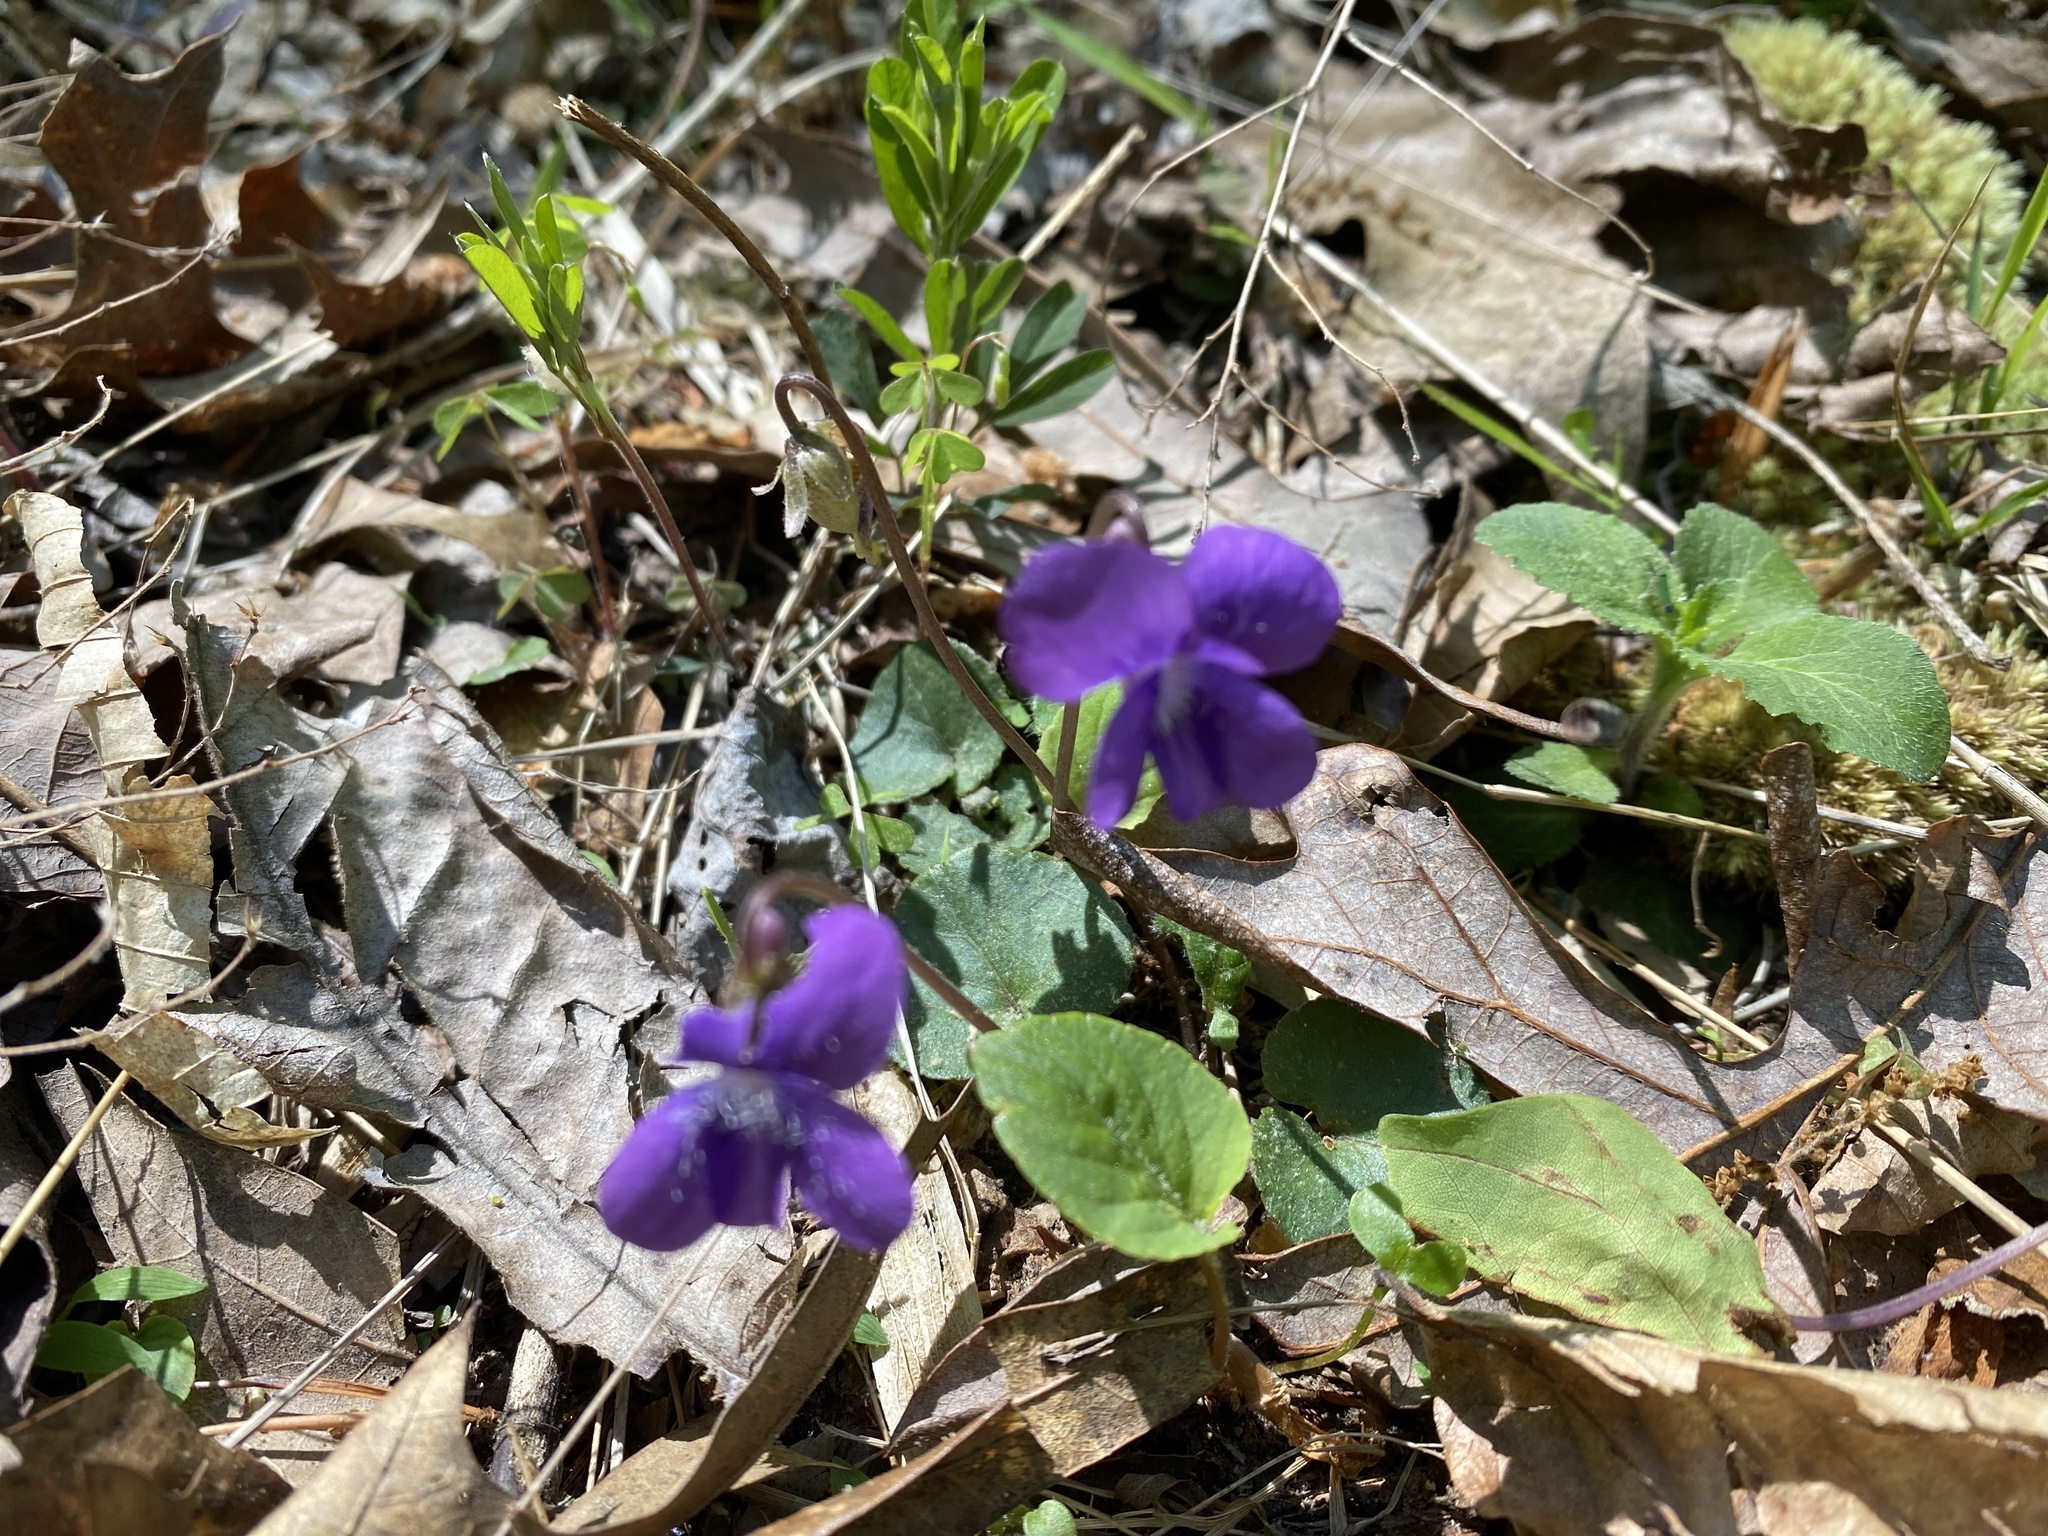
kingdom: Plantae
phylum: Tracheophyta
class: Magnoliopsida
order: Malpighiales
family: Violaceae
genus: Viola
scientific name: Viola sagittata
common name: Arrowhead violet
